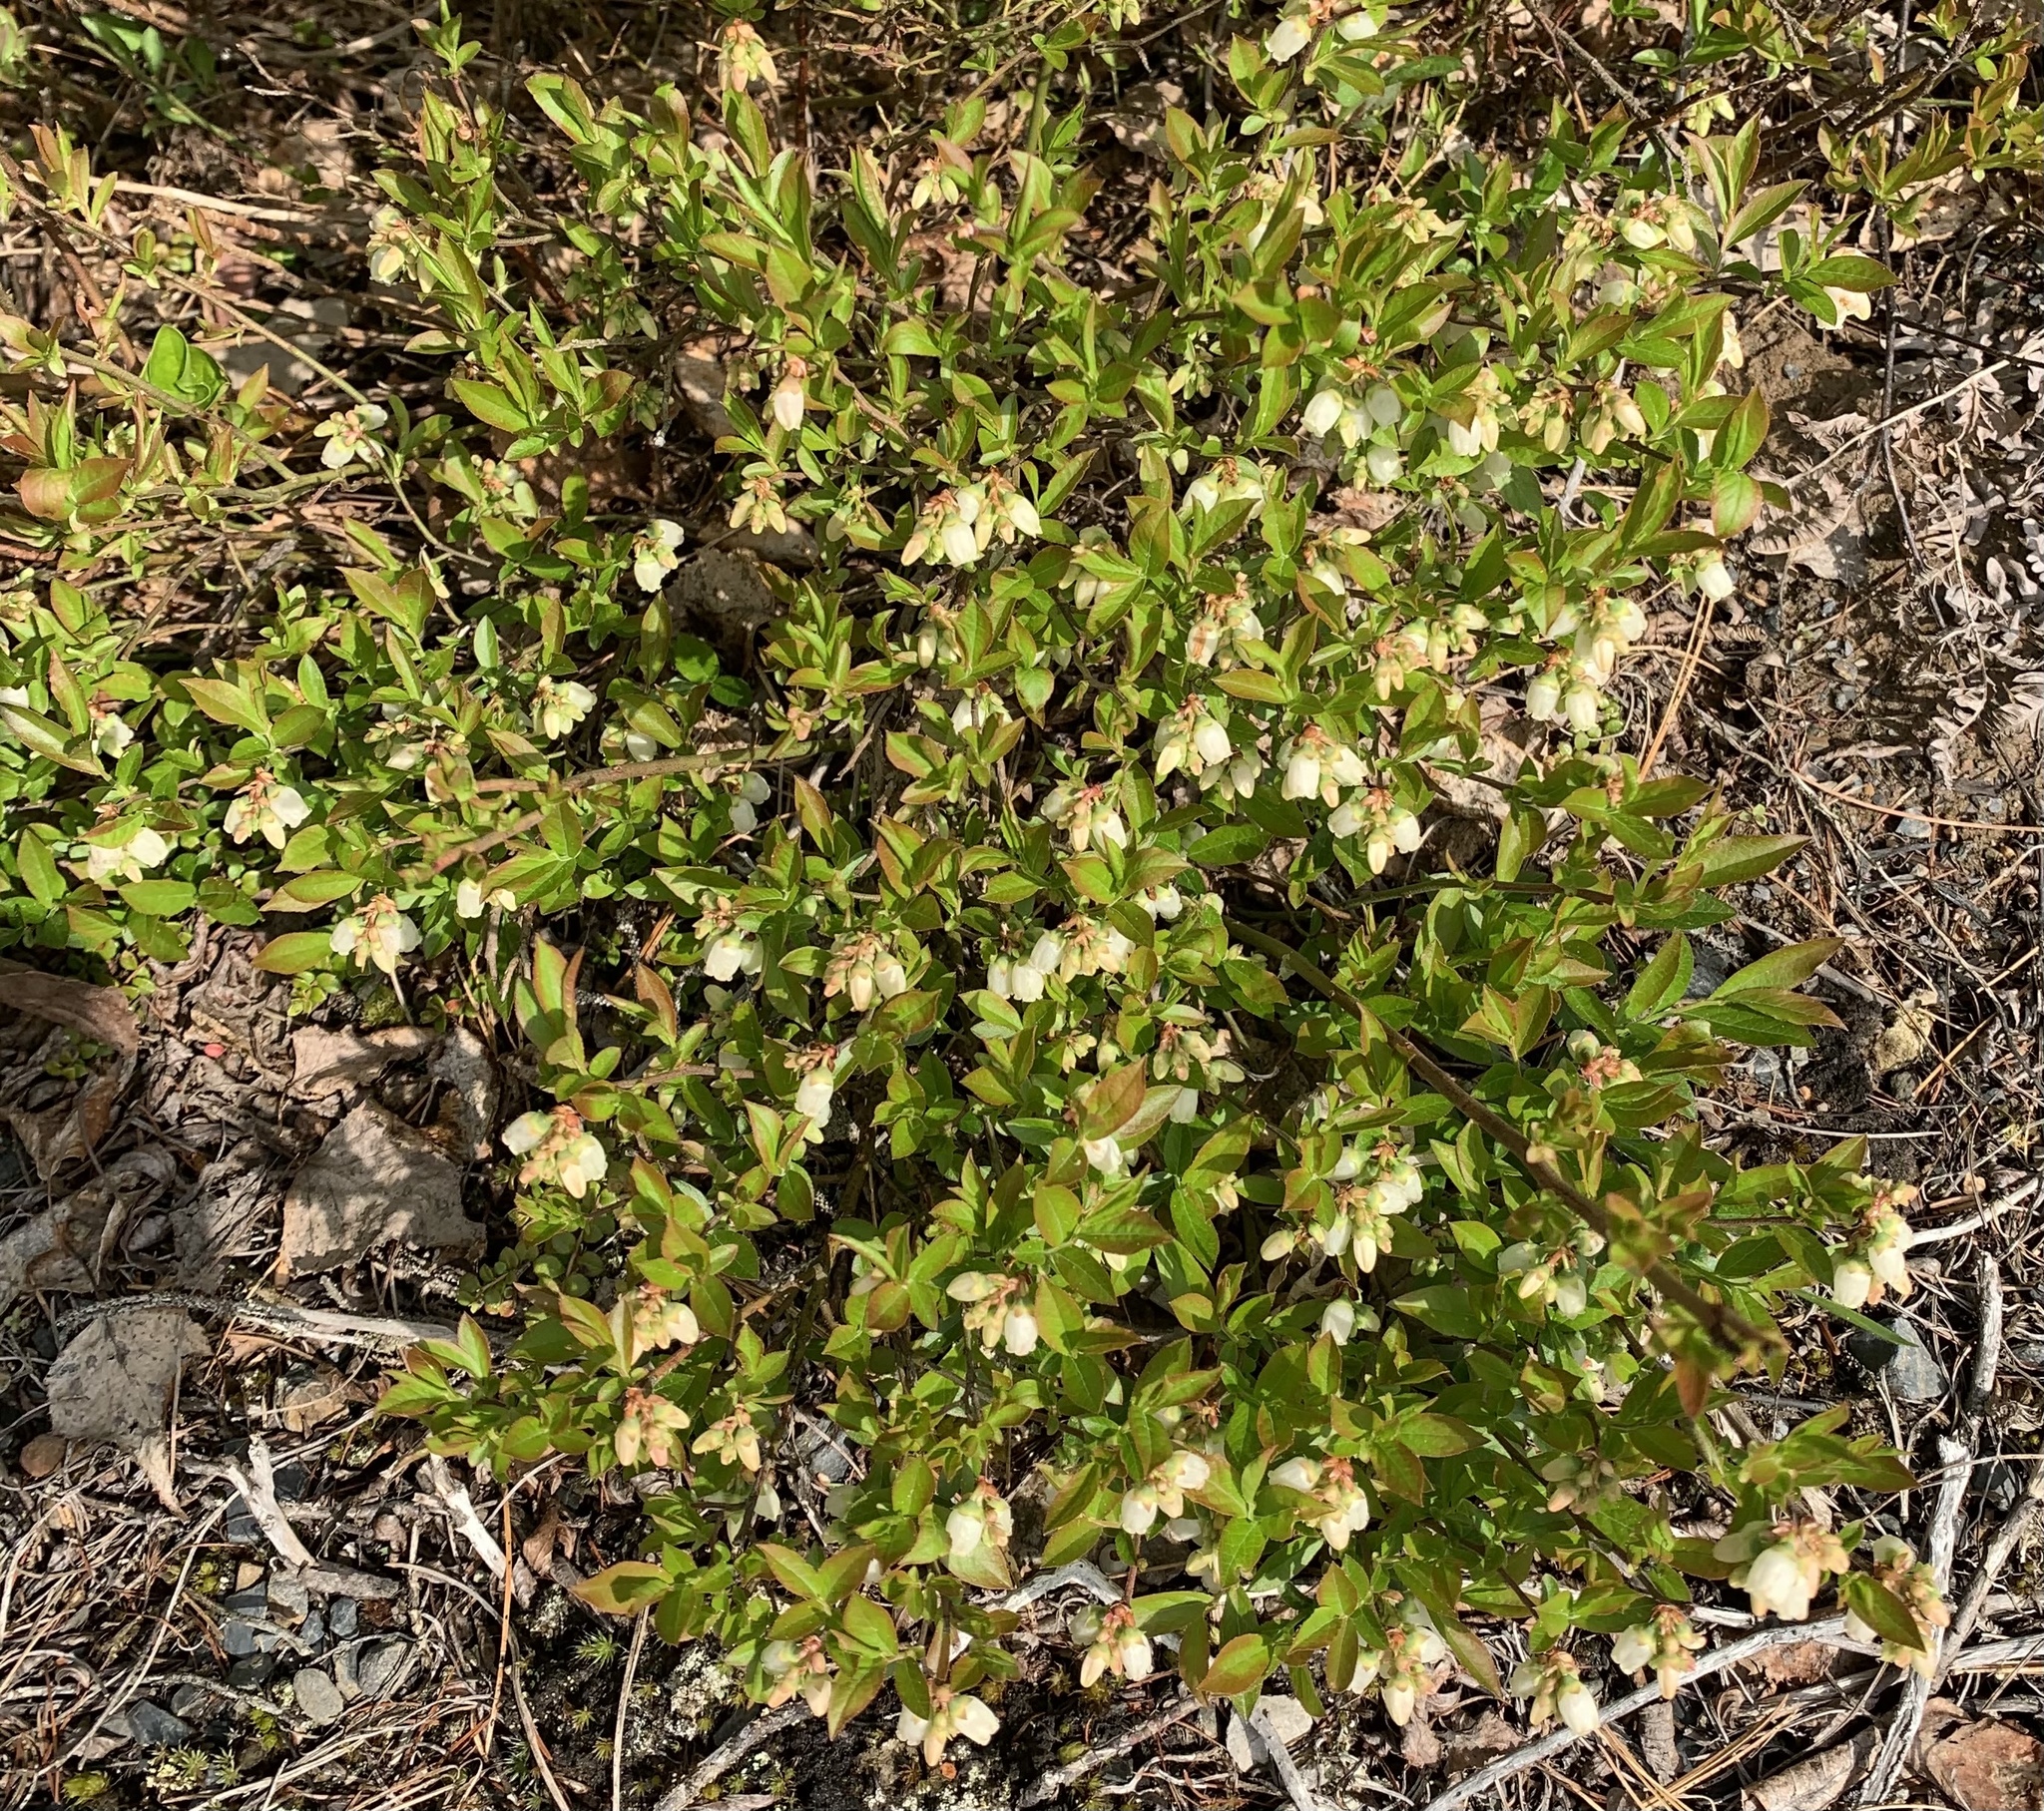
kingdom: Plantae
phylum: Tracheophyta
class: Magnoliopsida
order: Ericales
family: Ericaceae
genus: Vaccinium
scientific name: Vaccinium angustifolium
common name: Early lowbush blueberry
